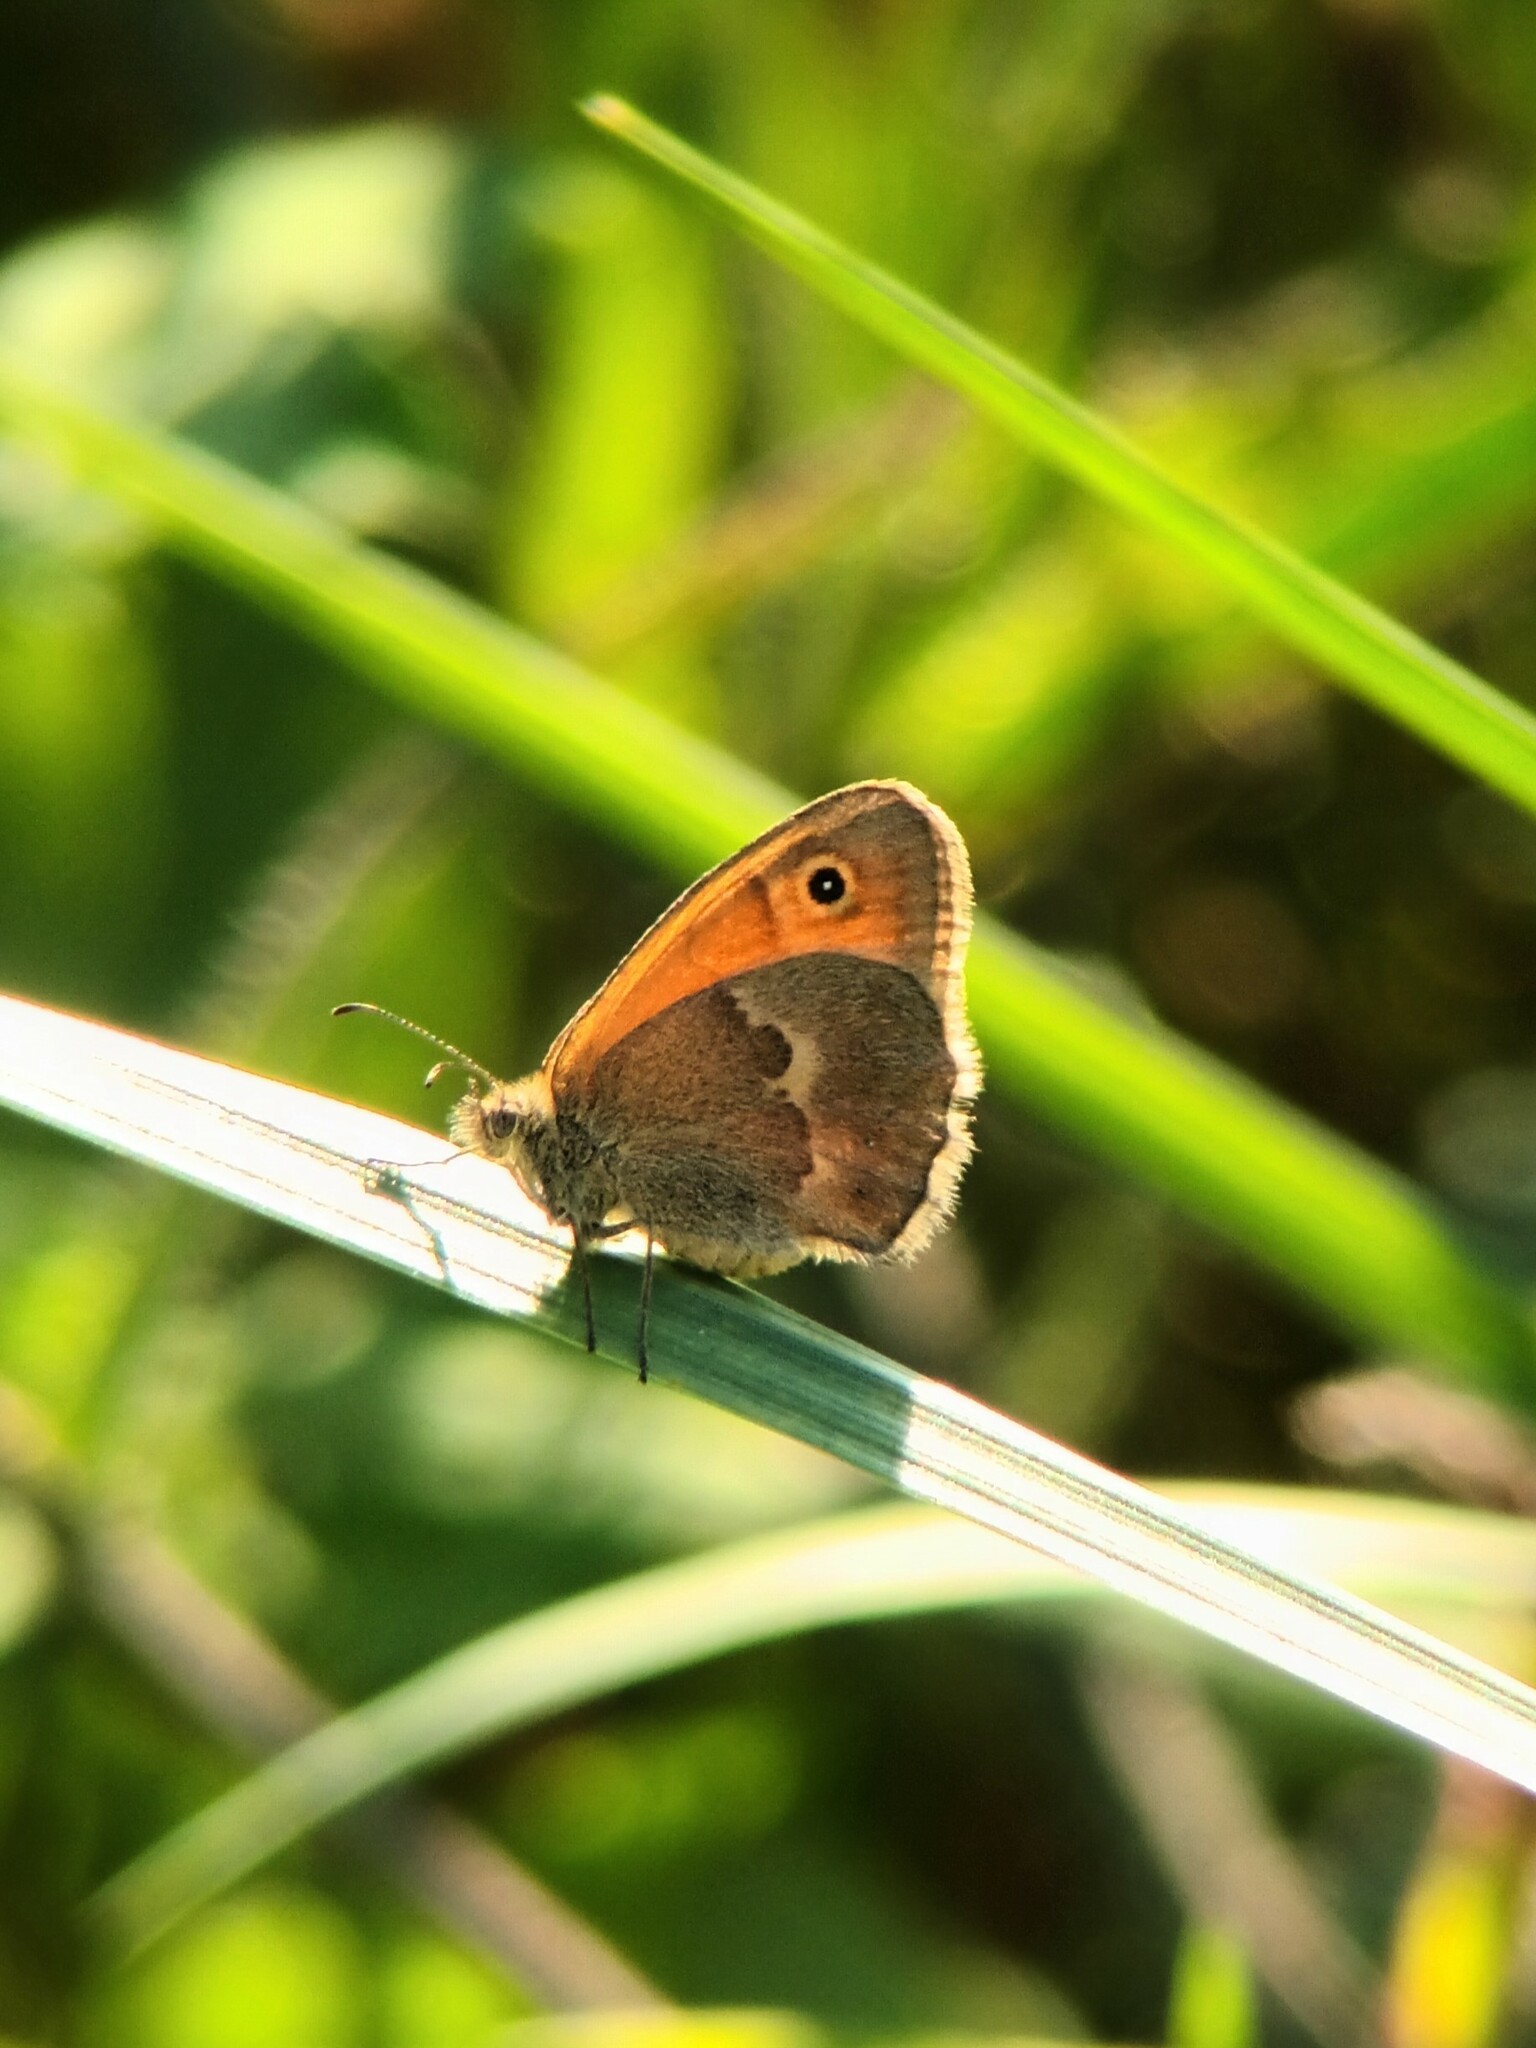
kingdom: Animalia
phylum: Arthropoda
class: Insecta
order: Lepidoptera
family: Nymphalidae
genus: Coenonympha
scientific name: Coenonympha pamphilus
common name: Small heath
